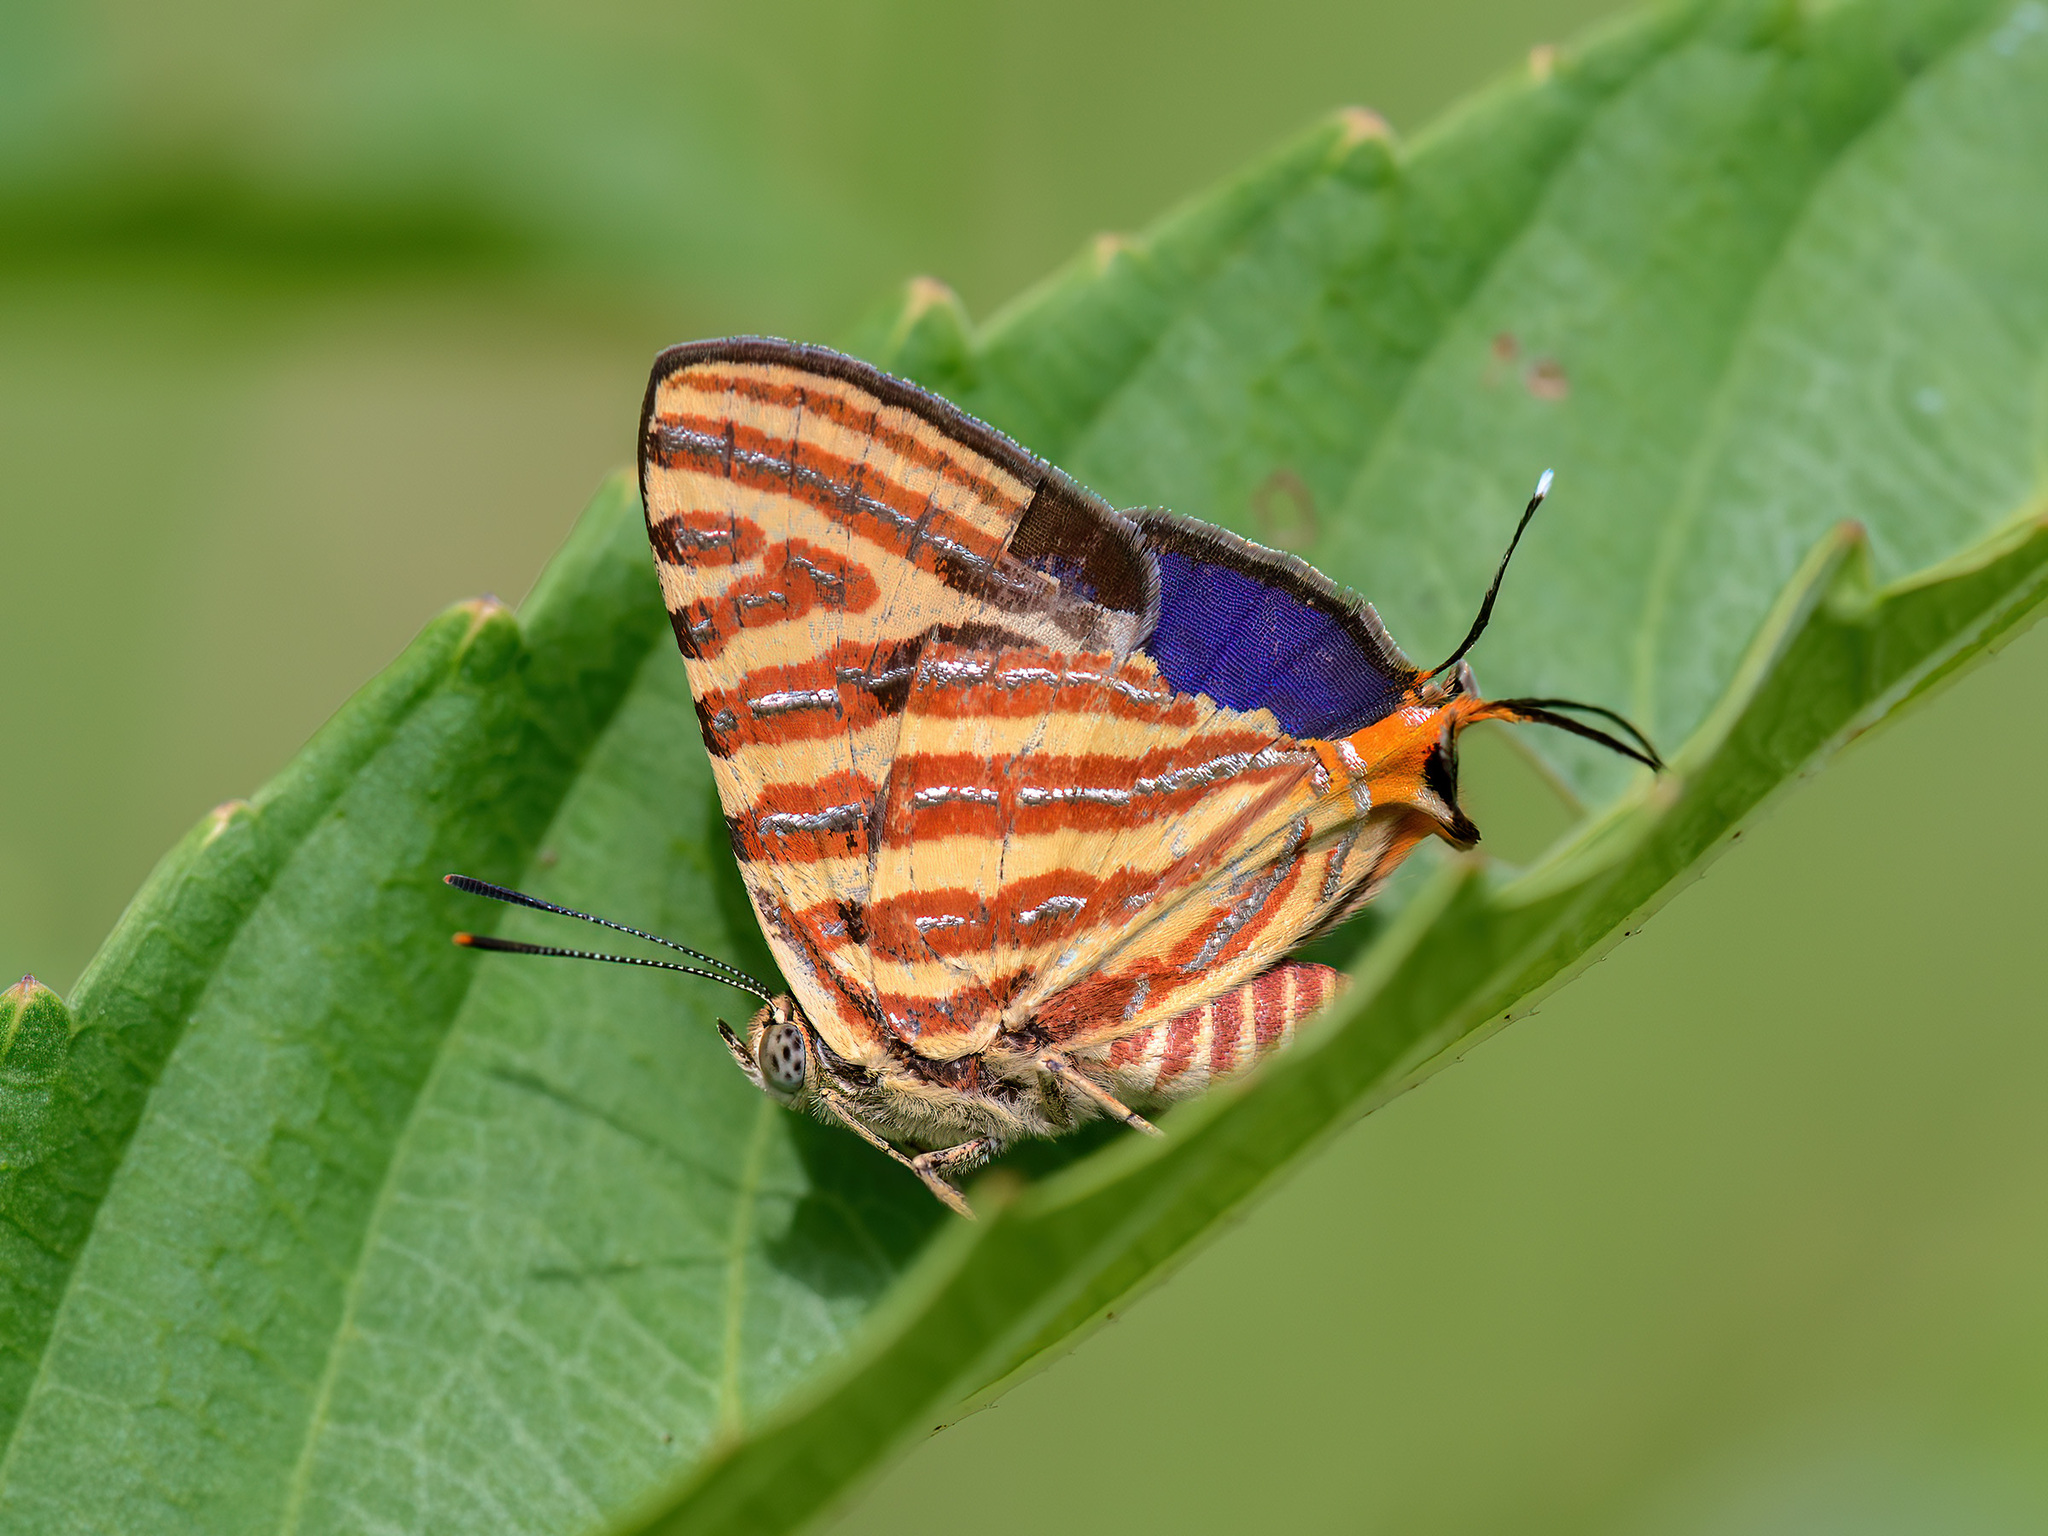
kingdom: Animalia
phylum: Arthropoda
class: Insecta
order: Lepidoptera
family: Lycaenidae
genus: Cigaritis
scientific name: Cigaritis lohita
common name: Long-banded silverline
